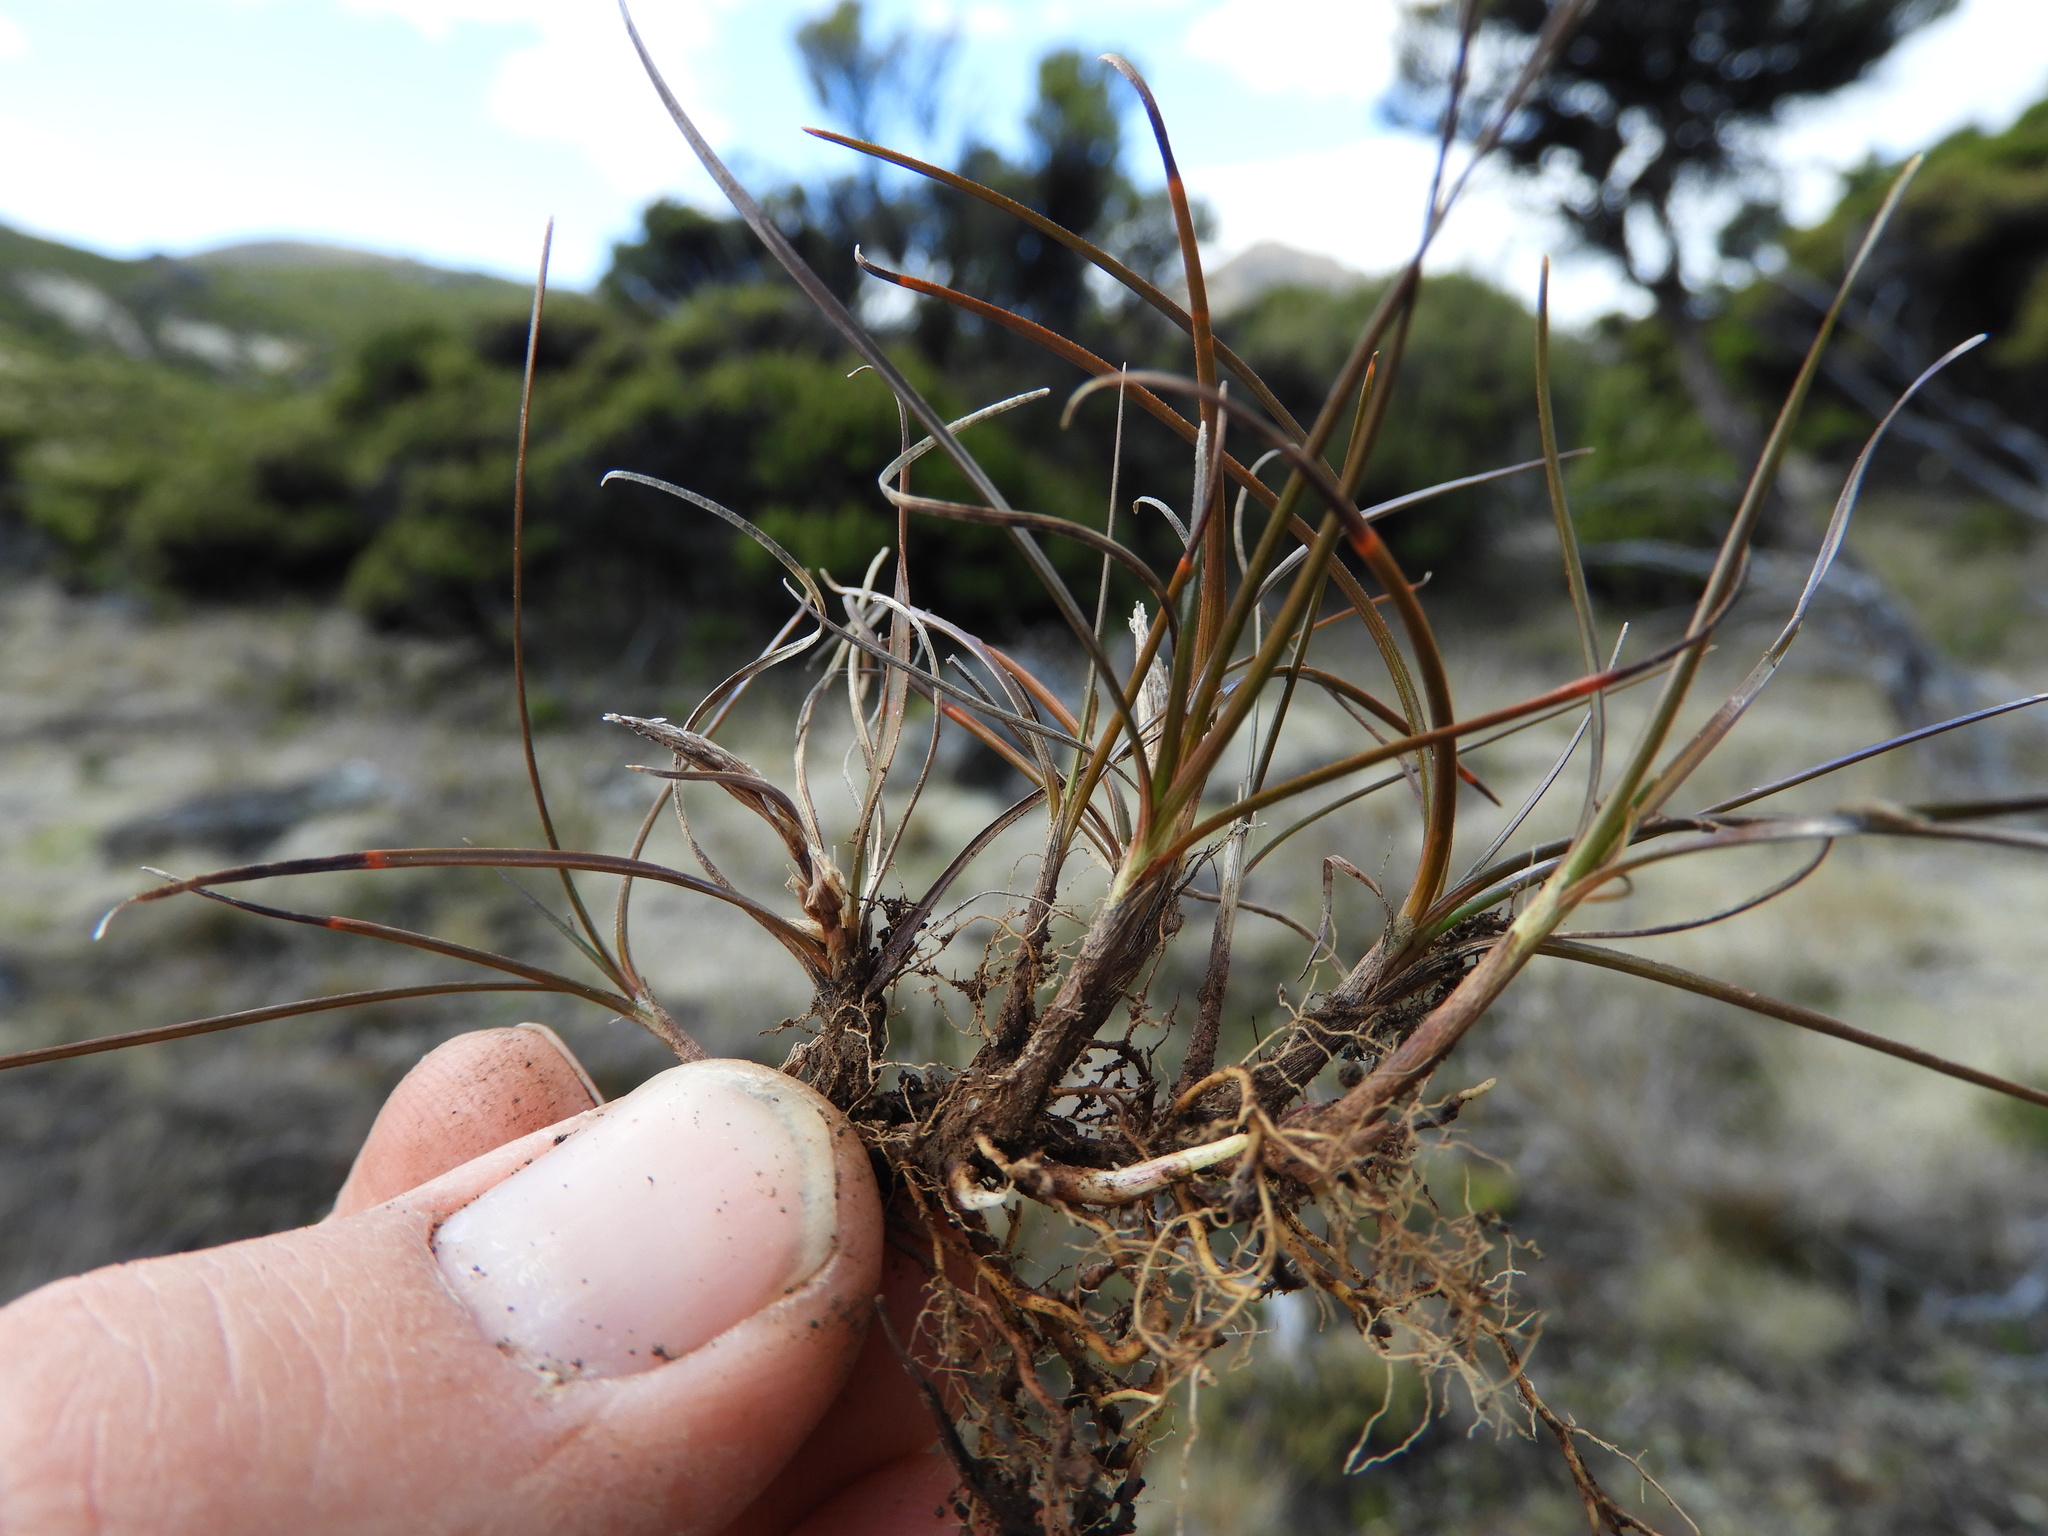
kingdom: Plantae
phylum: Tracheophyta
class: Liliopsida
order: Poales
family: Cyperaceae
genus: Carex
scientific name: Carex uncifolia
